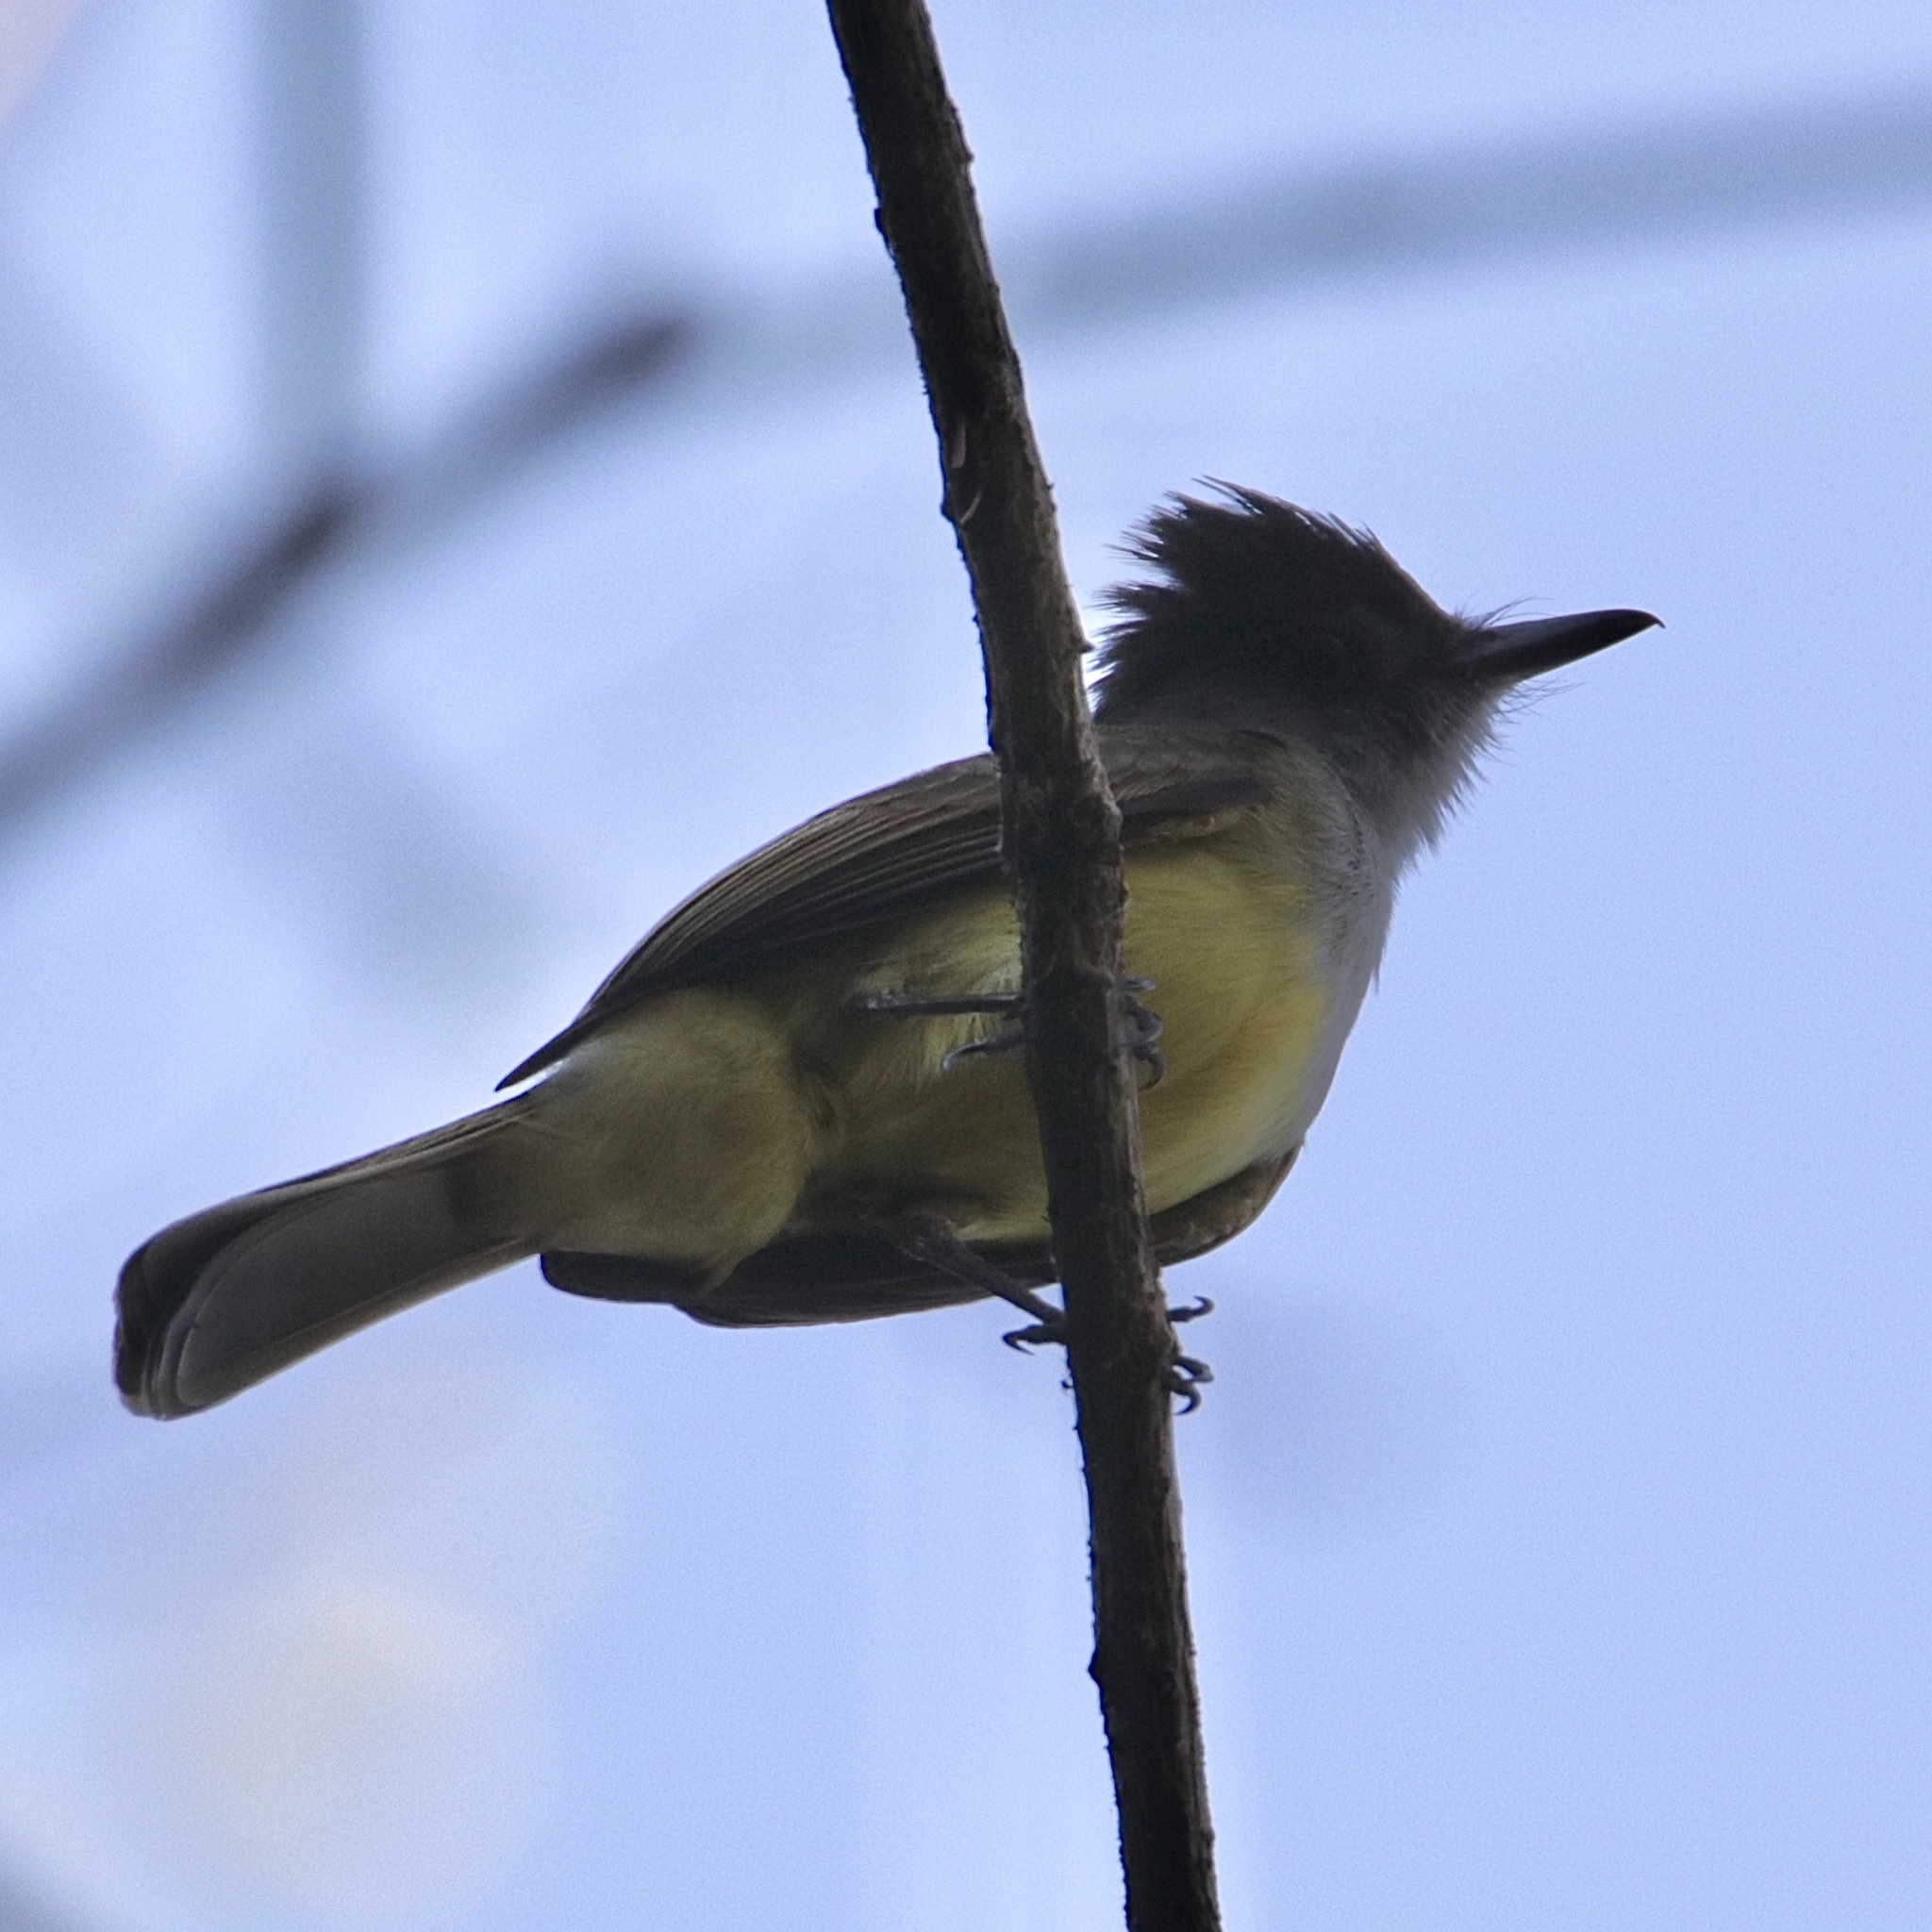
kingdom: Animalia
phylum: Chordata
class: Aves
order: Passeriformes
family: Tyrannidae
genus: Myiarchus
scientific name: Myiarchus tuberculifer
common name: Dusky-capped flycatcher
